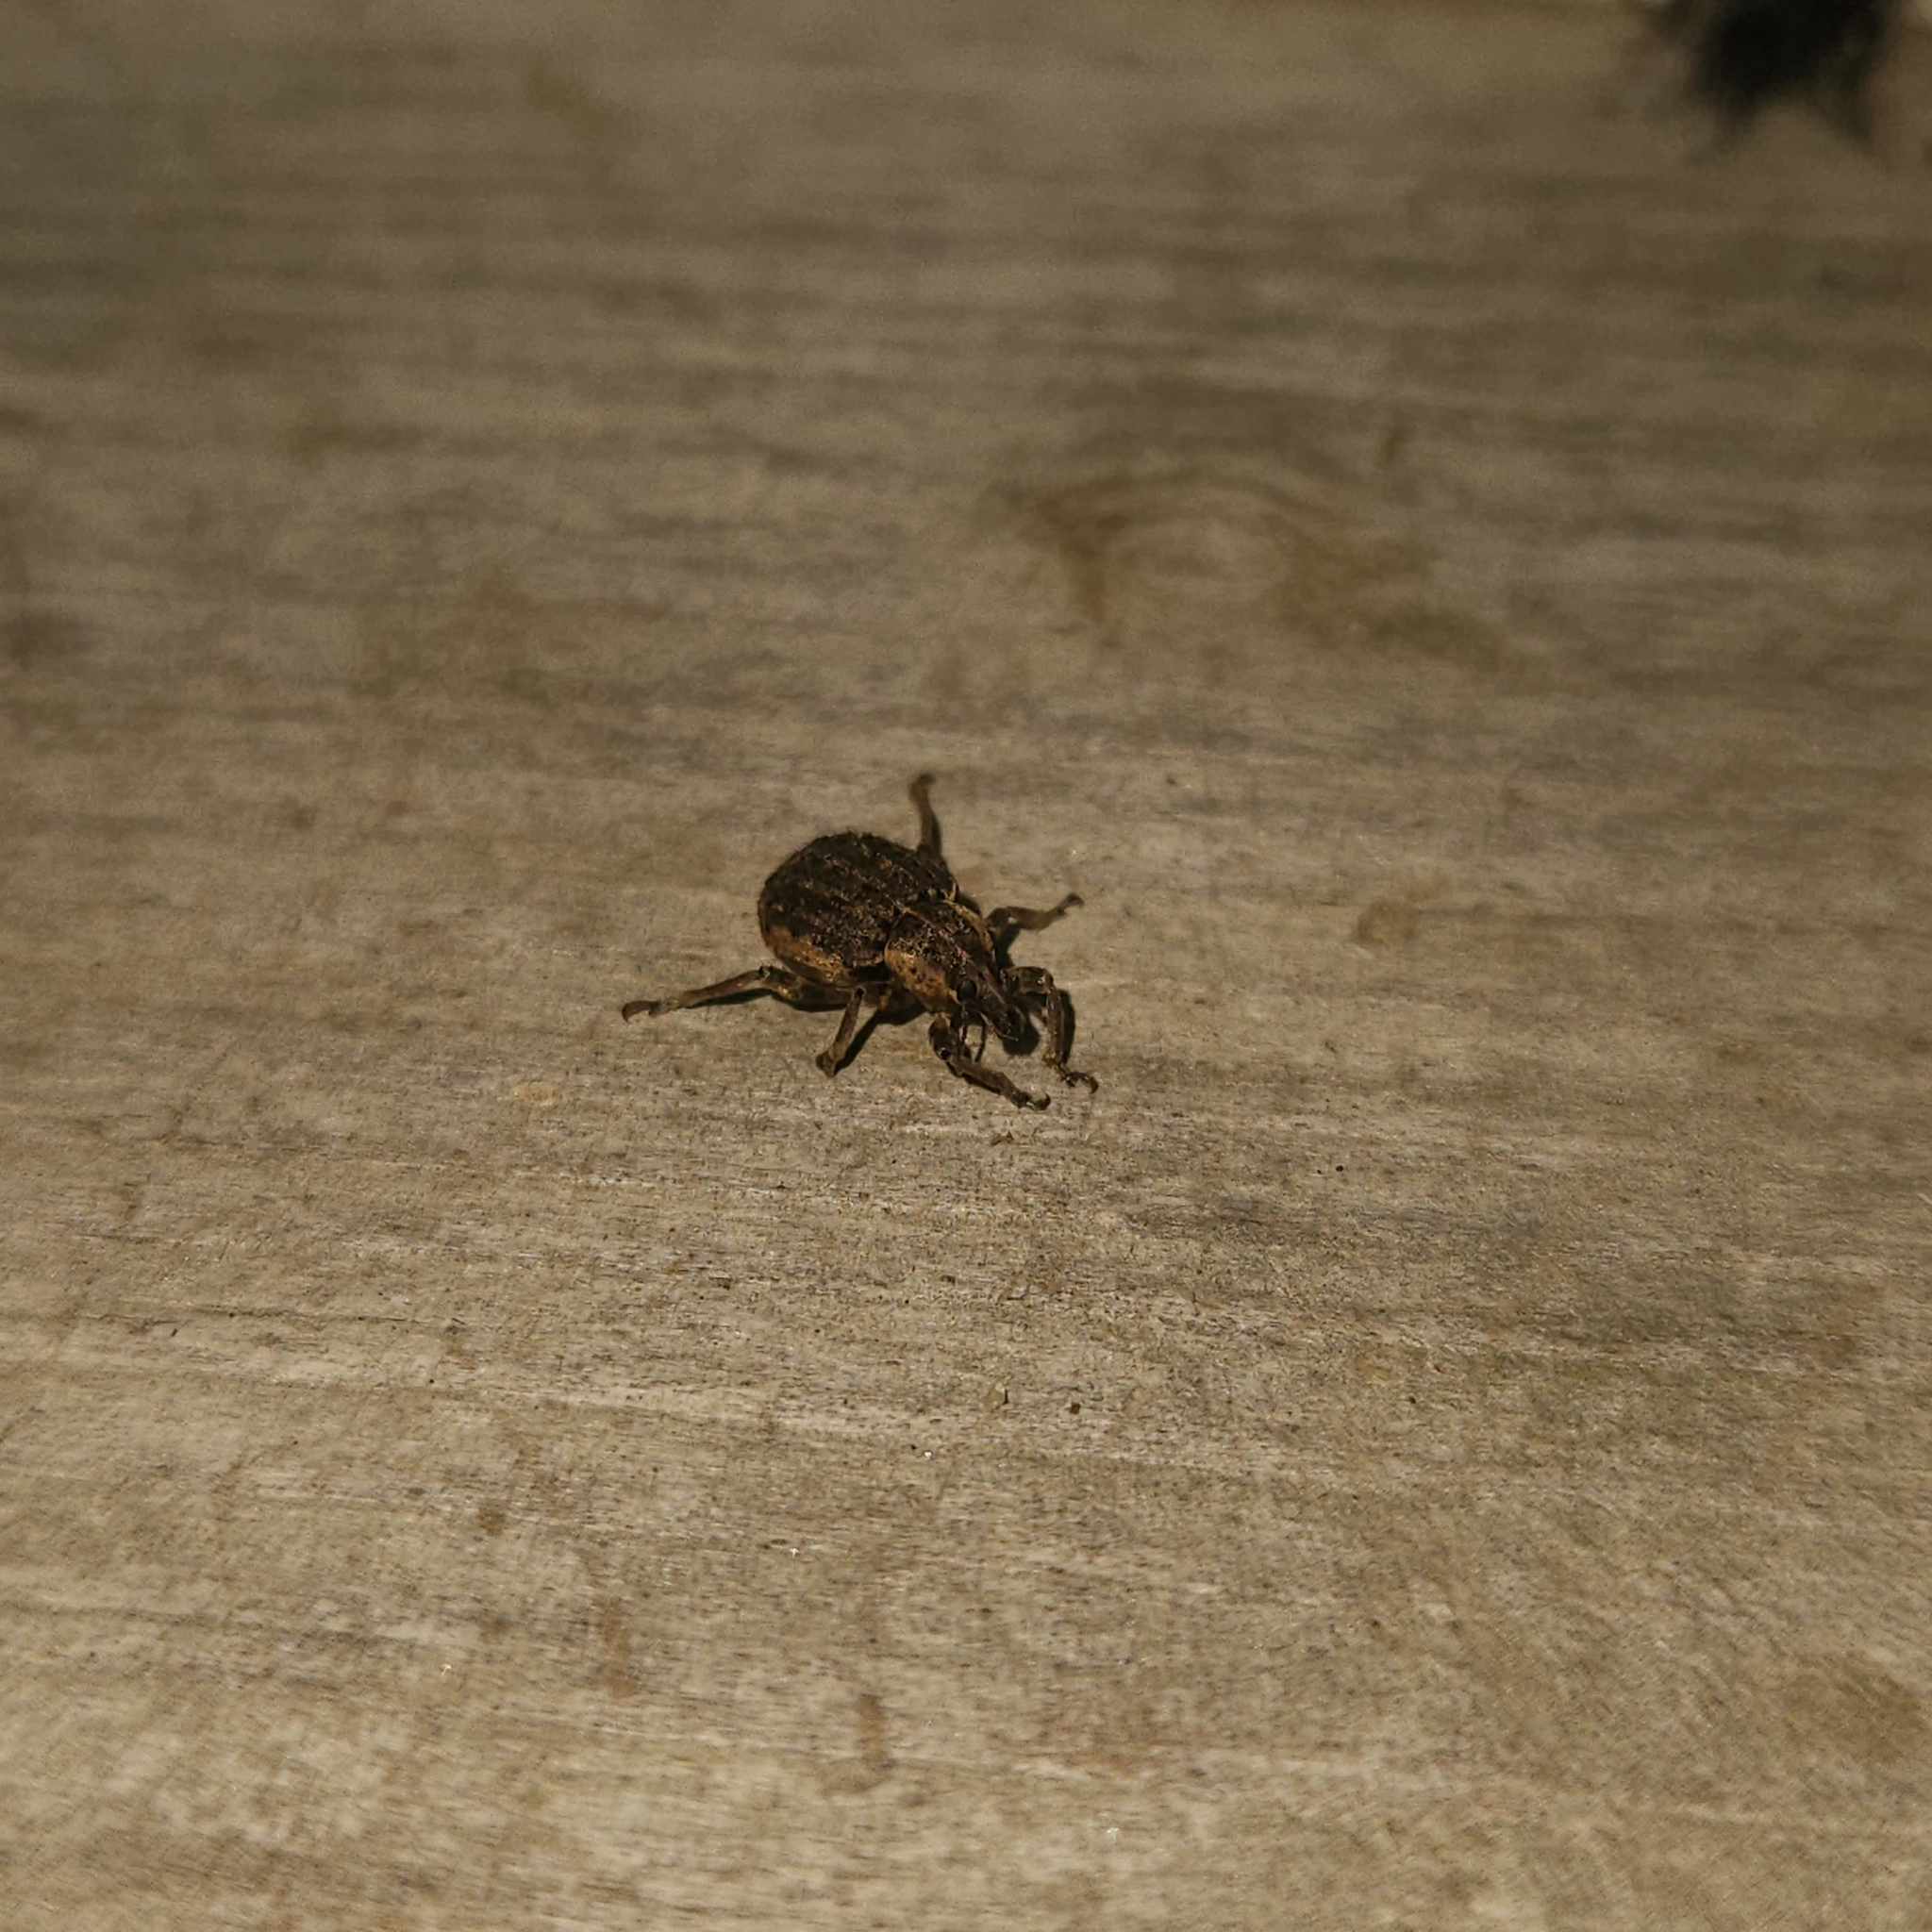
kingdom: Animalia
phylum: Arthropoda
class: Insecta
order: Coleoptera
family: Curculionidae
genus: Brachypera
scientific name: Brachypera zoilus
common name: Clover leaf weevil
